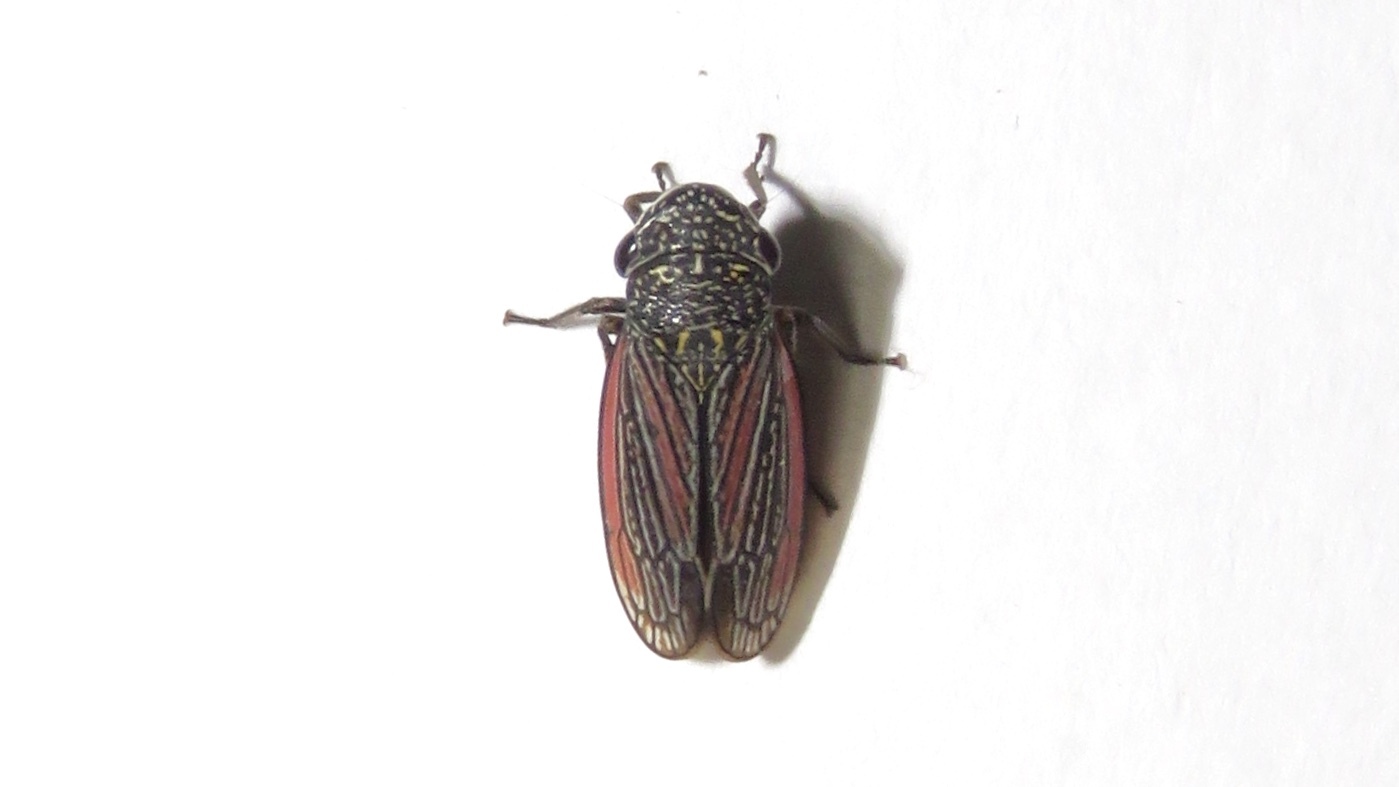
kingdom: Animalia
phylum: Arthropoda
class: Insecta
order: Hemiptera
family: Cicadellidae
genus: Cuerna
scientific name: Cuerna striata
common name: Striped leafhopper
